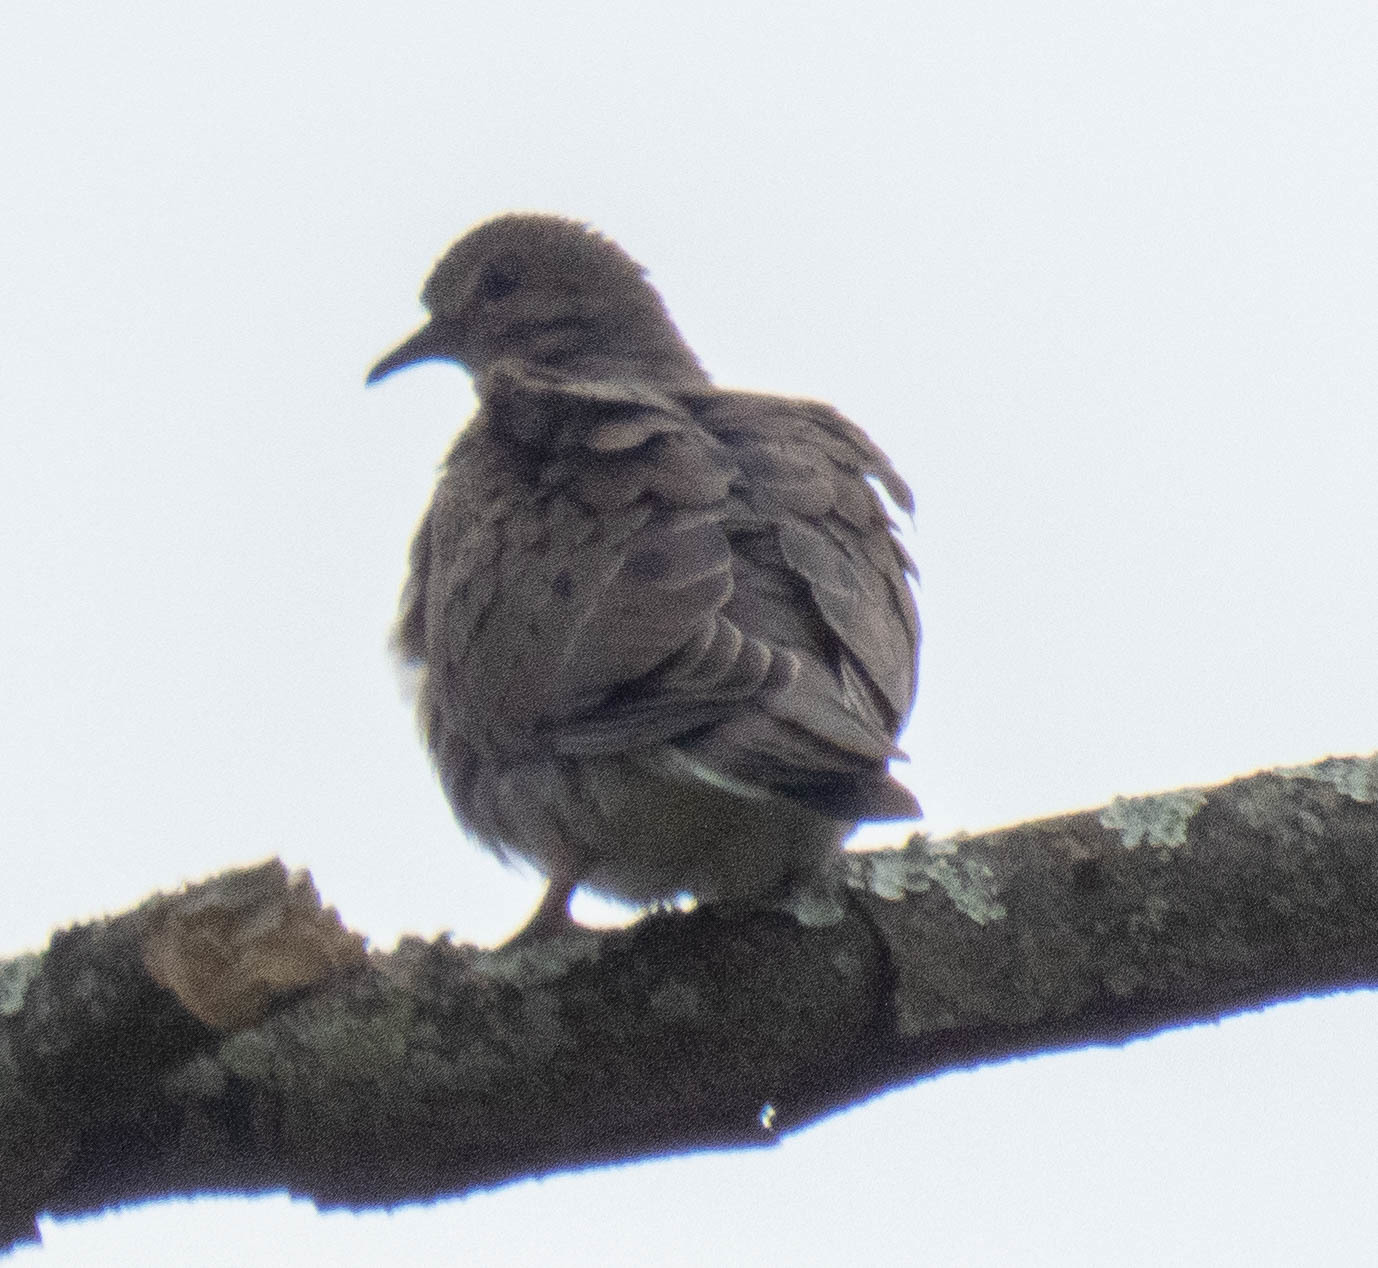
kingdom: Animalia
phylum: Chordata
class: Aves
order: Columbiformes
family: Columbidae
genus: Zenaida
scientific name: Zenaida macroura
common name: Mourning dove
